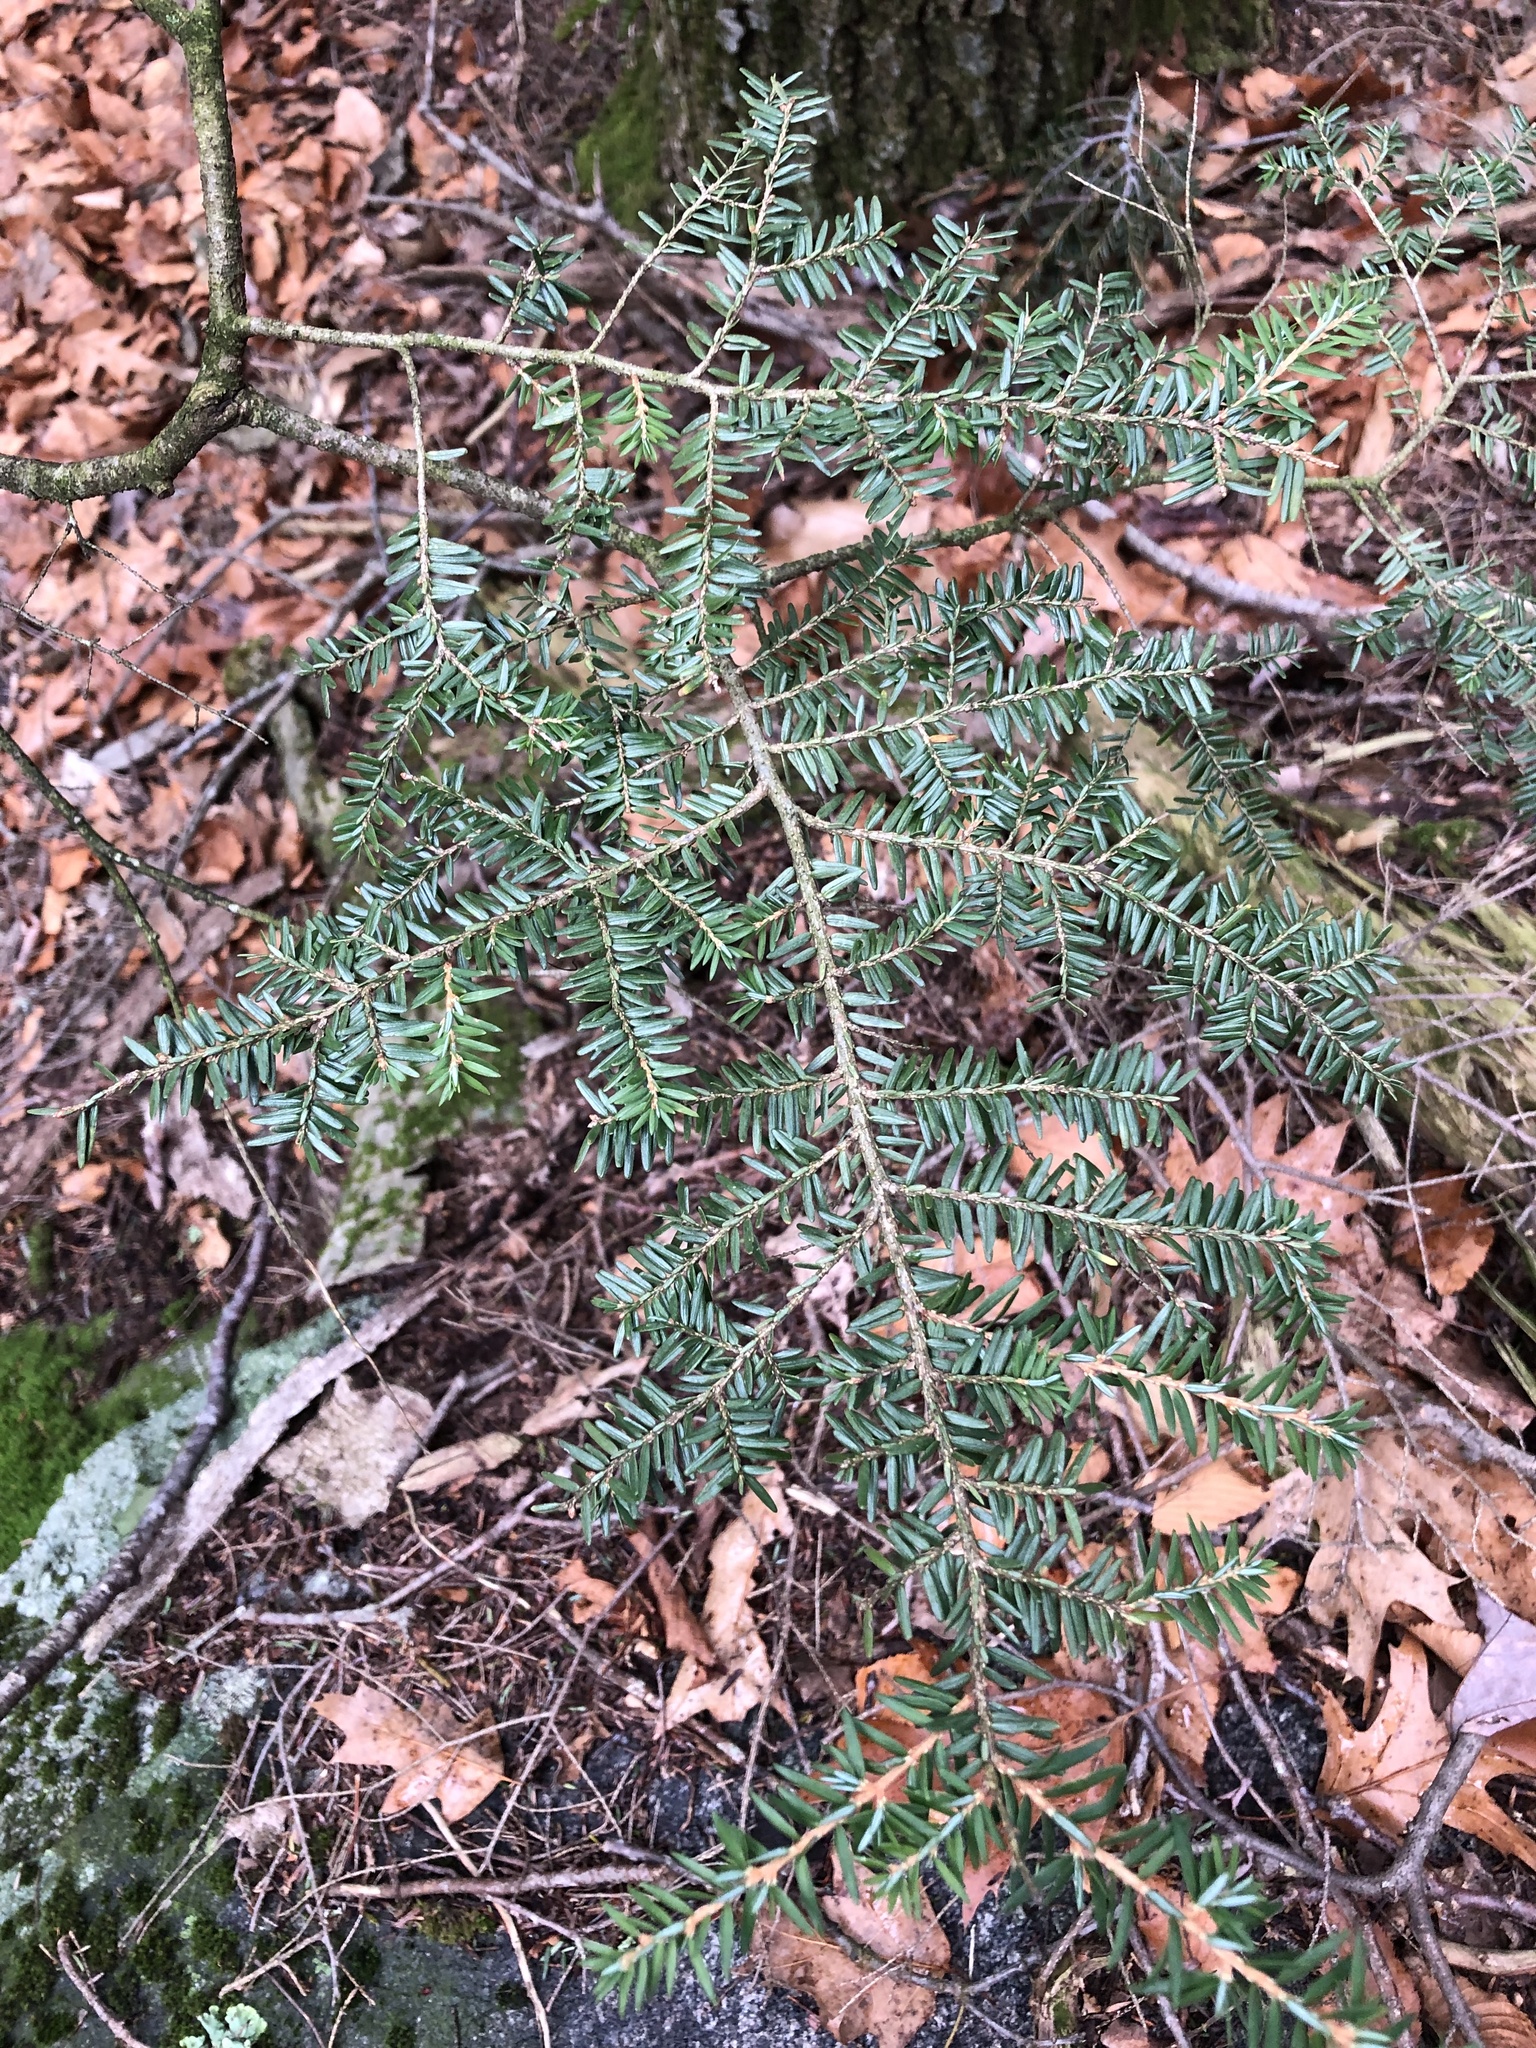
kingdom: Plantae
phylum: Tracheophyta
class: Pinopsida
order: Pinales
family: Pinaceae
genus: Tsuga
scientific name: Tsuga canadensis
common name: Eastern hemlock
